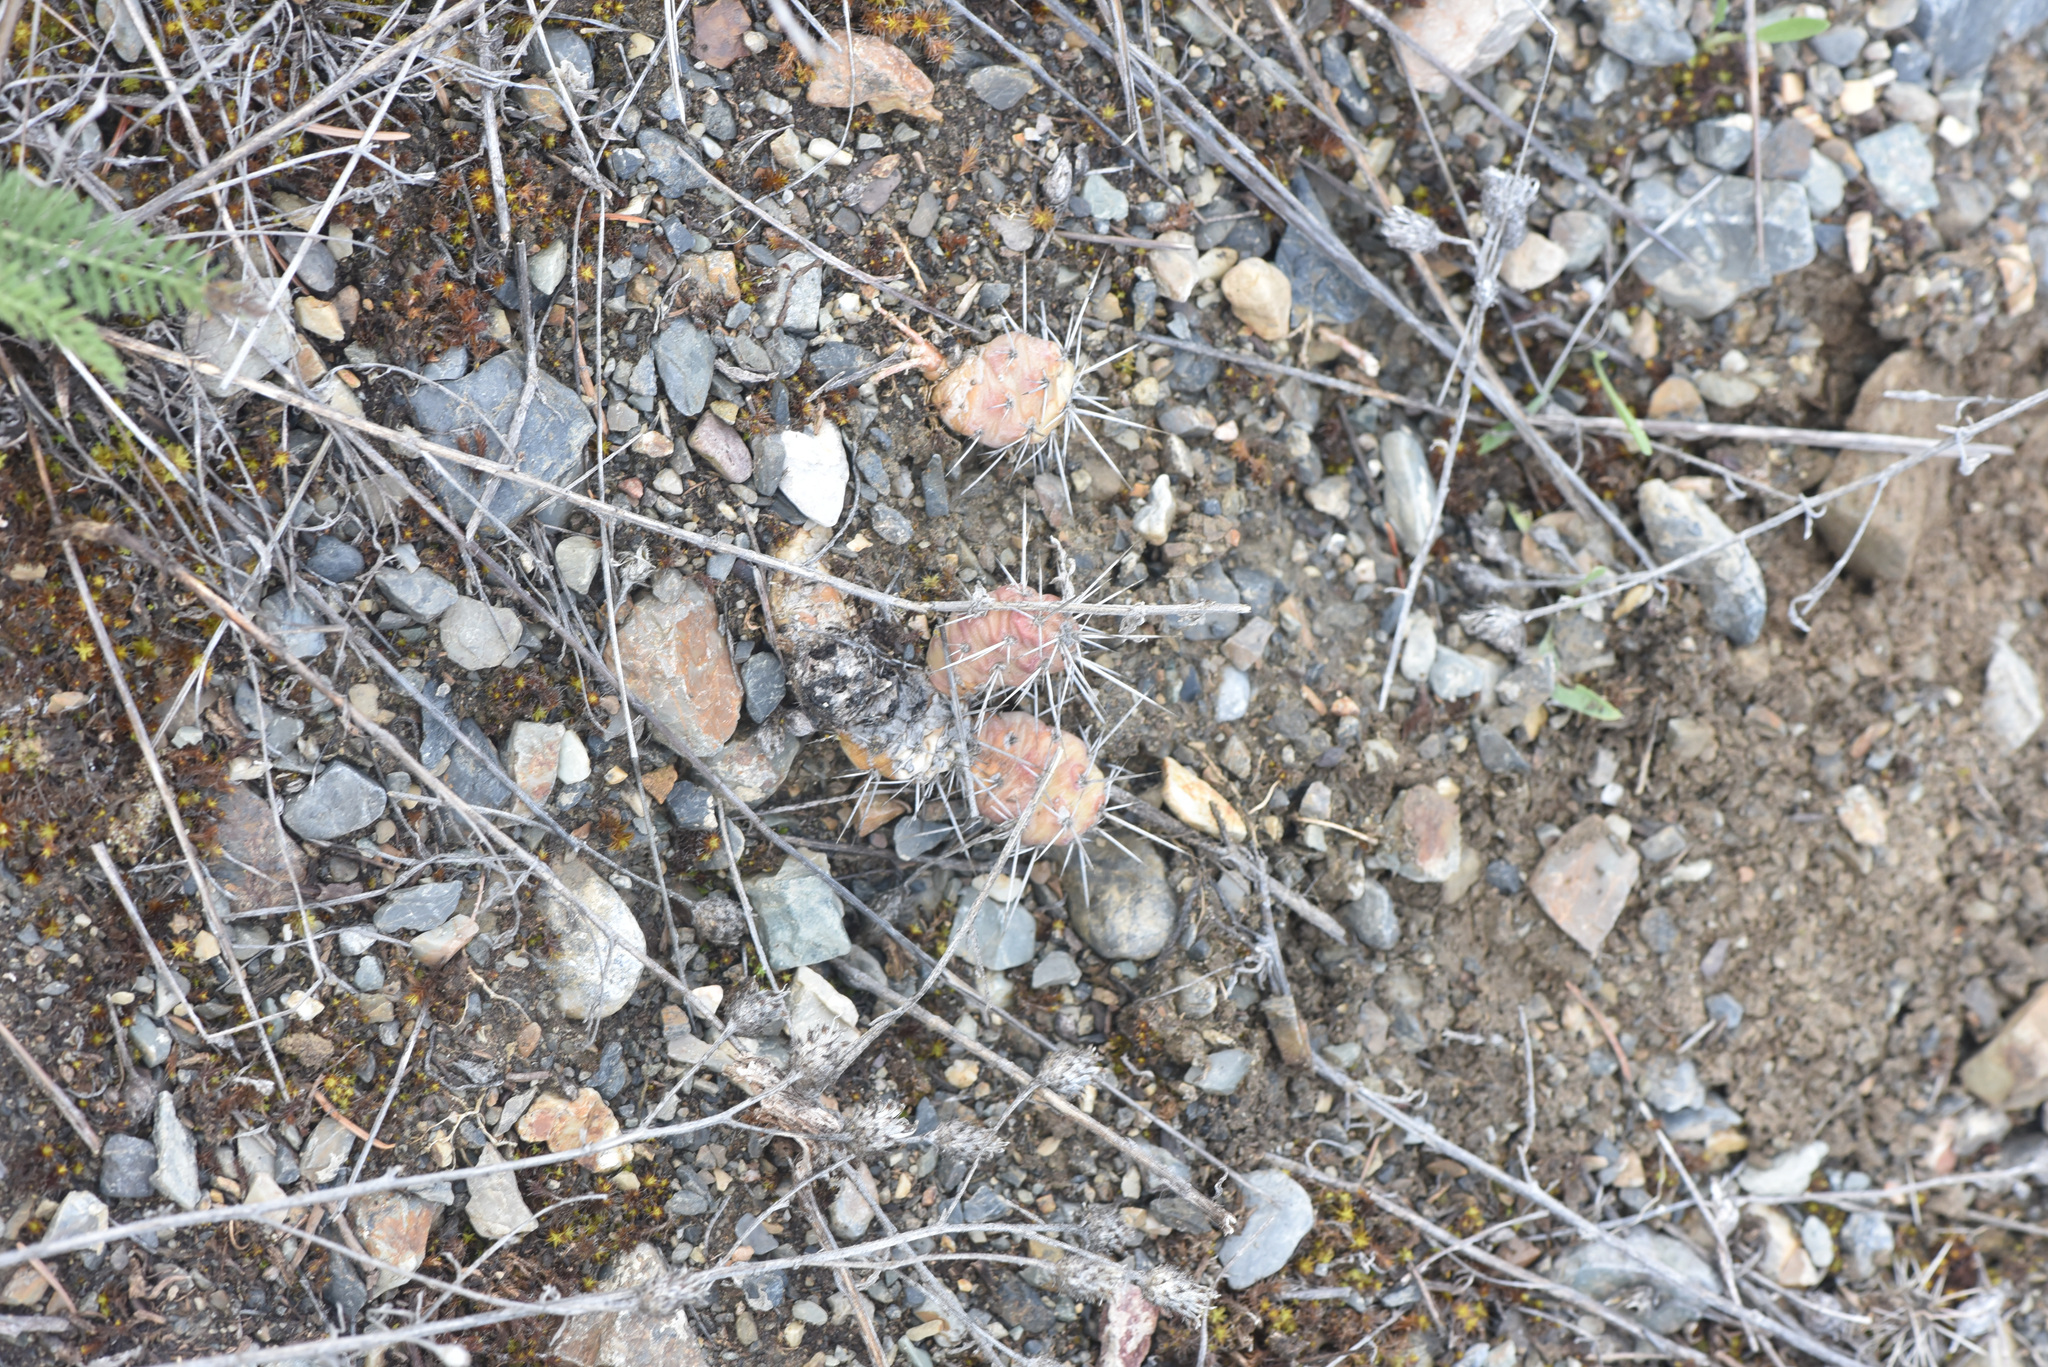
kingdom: Plantae
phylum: Tracheophyta
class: Magnoliopsida
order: Caryophyllales
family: Cactaceae
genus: Opuntia
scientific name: Opuntia fragilis
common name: Brittle cactus
